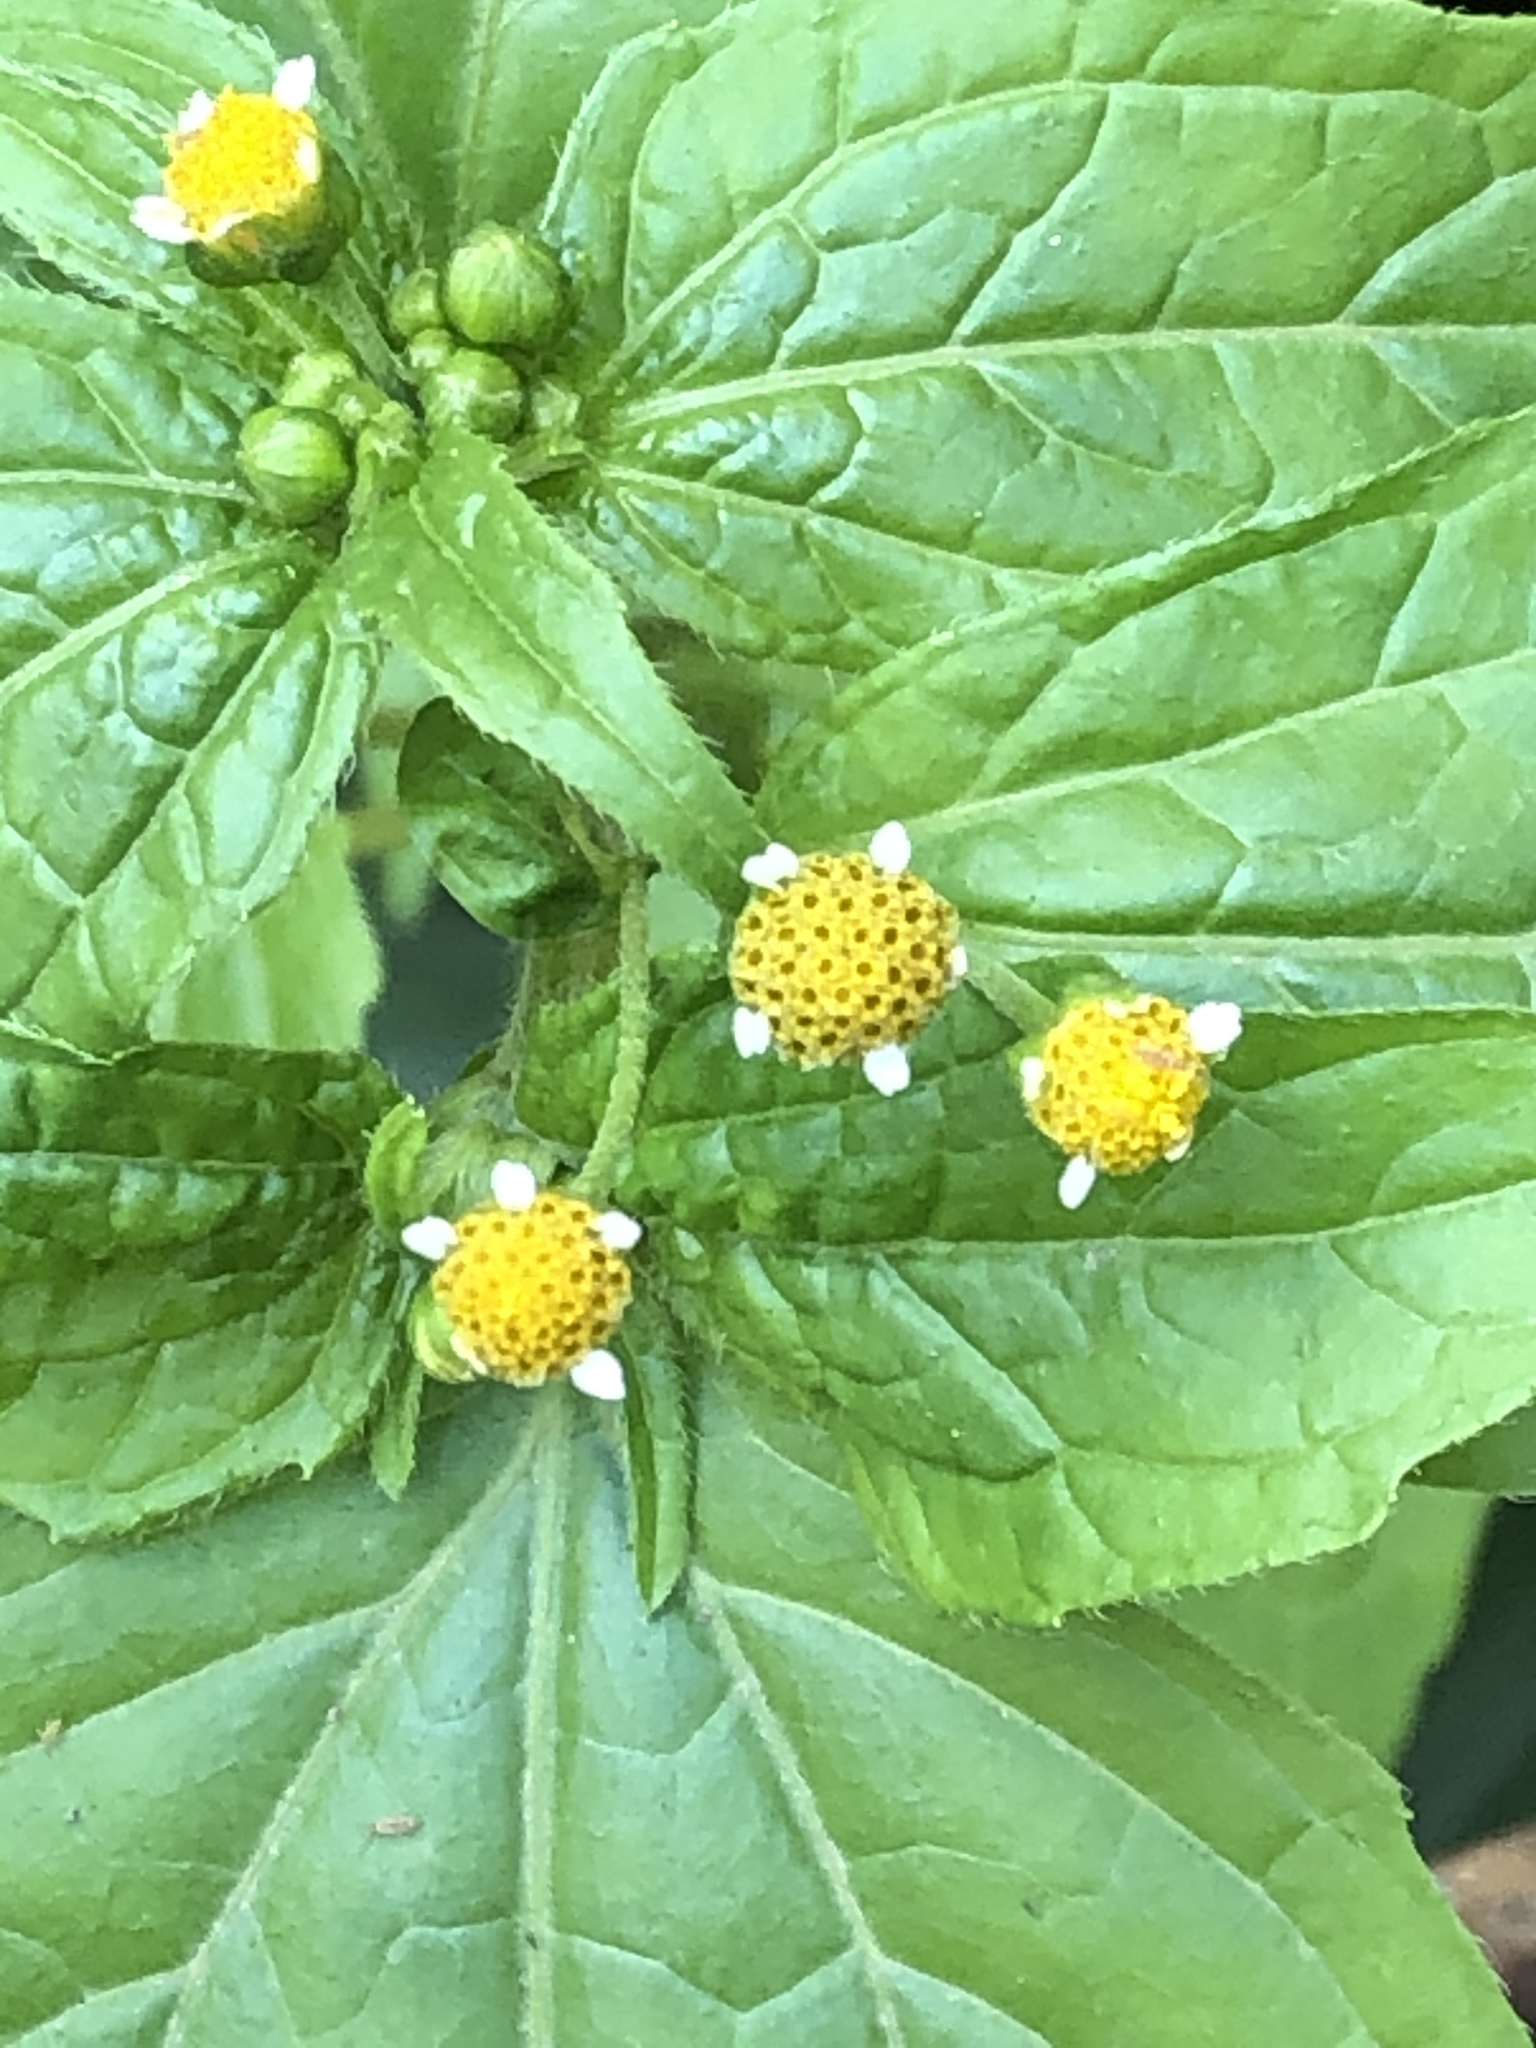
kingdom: Plantae
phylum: Tracheophyta
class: Magnoliopsida
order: Asterales
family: Asteraceae
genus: Galinsoga
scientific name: Galinsoga parviflora
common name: Gallant soldier
